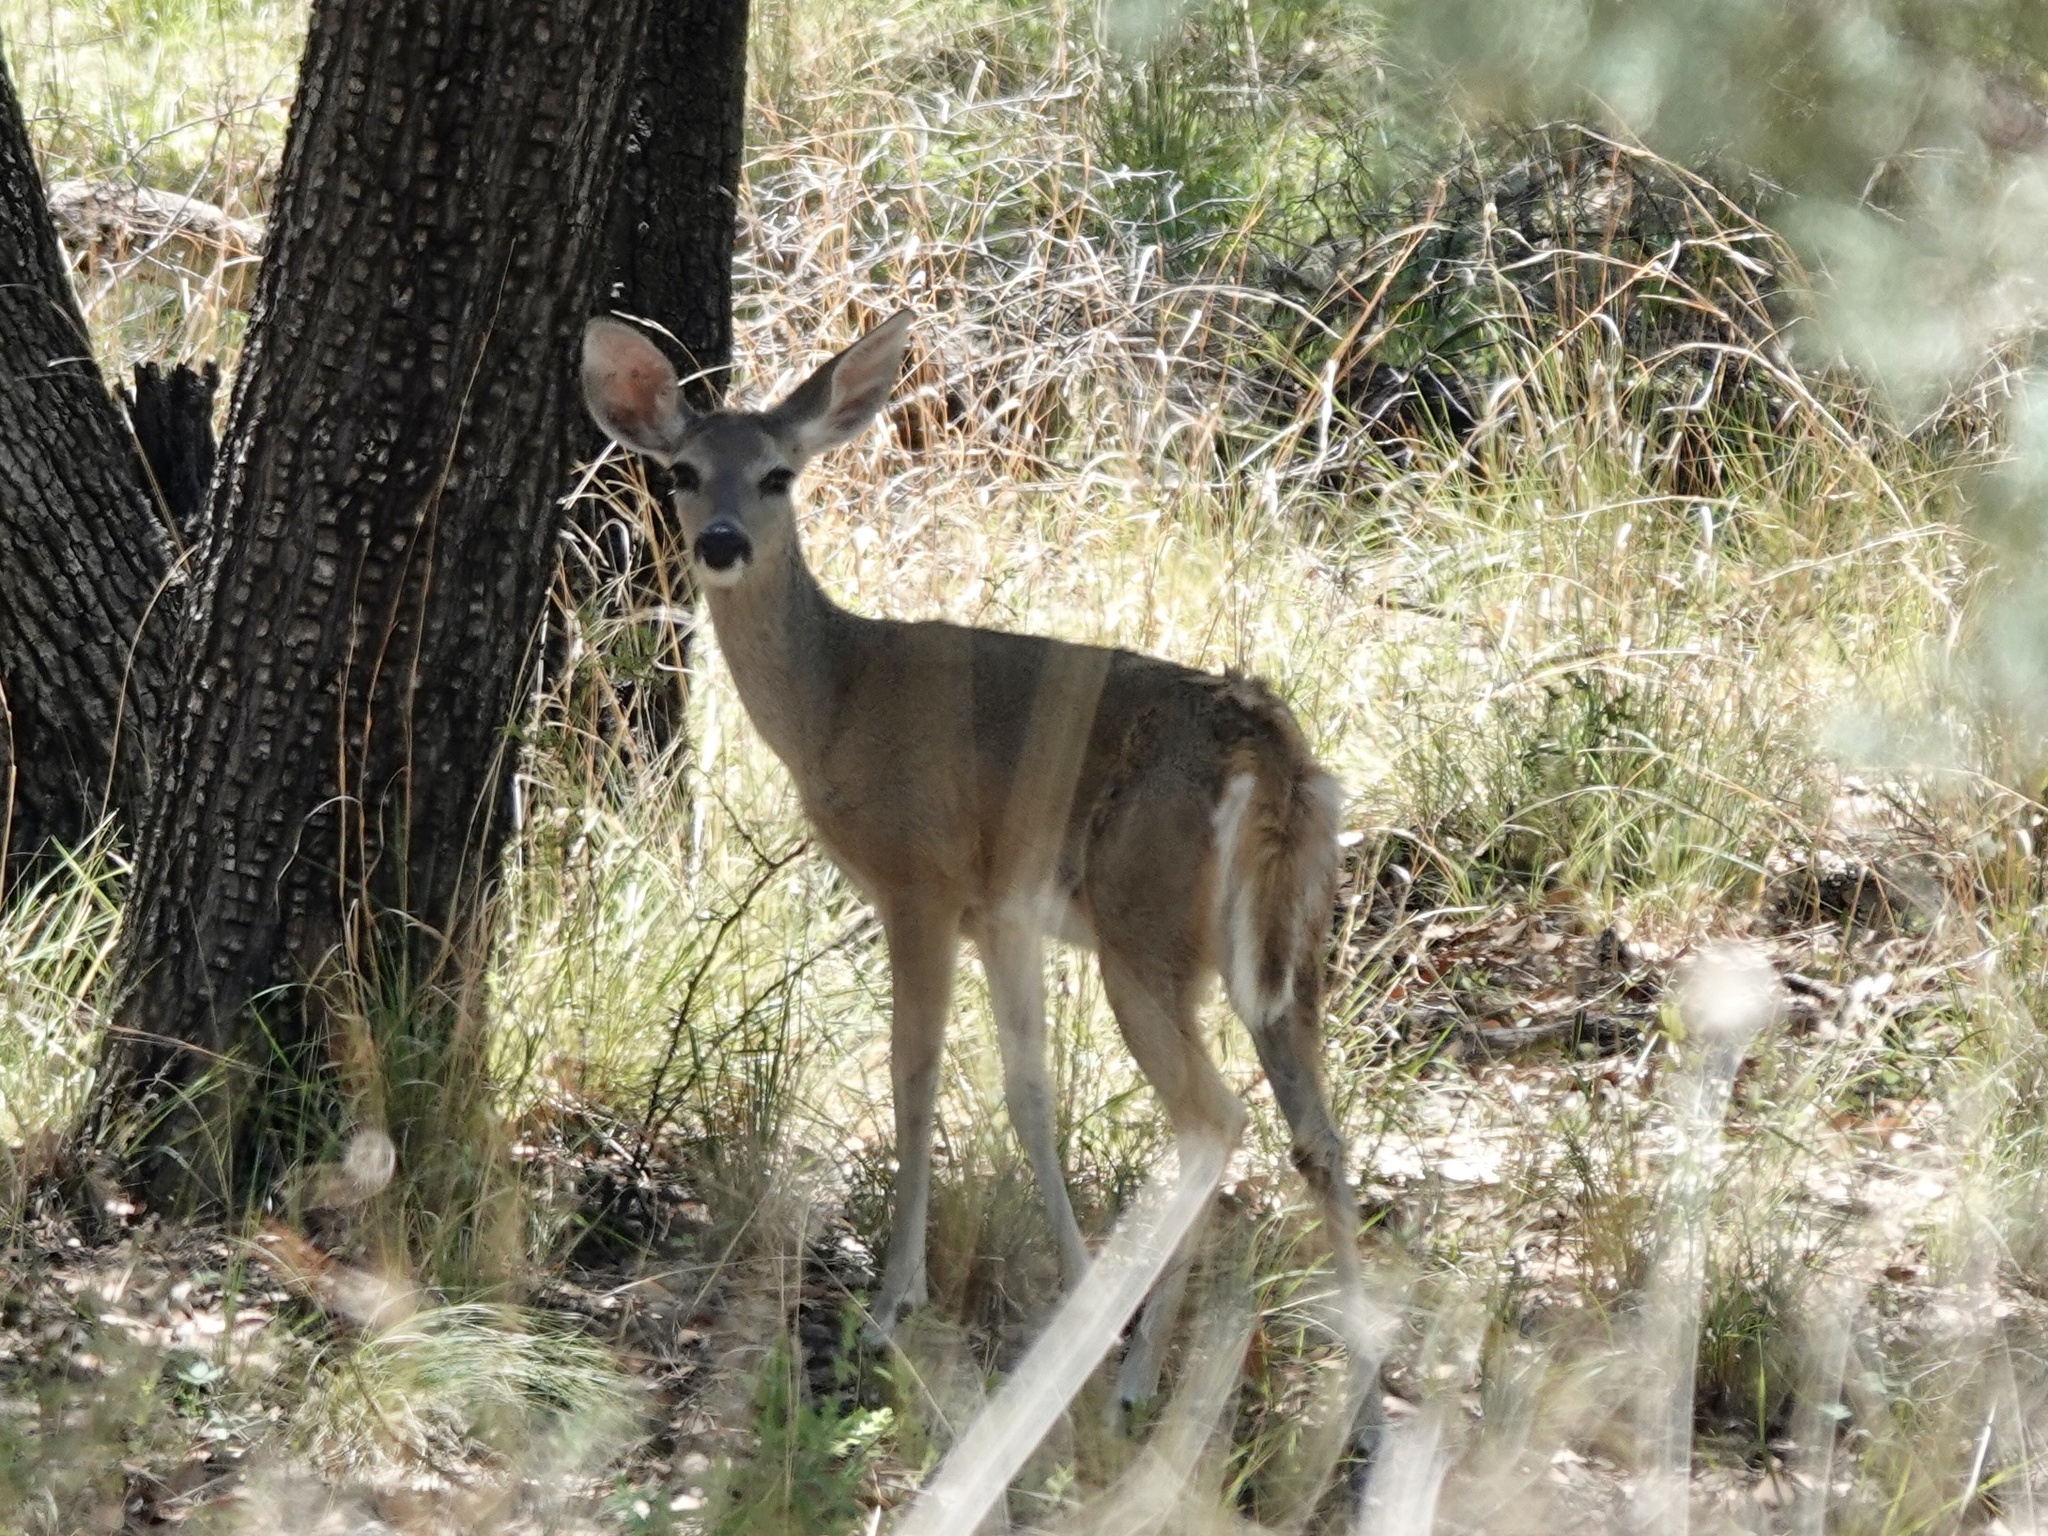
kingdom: Animalia
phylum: Chordata
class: Mammalia
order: Artiodactyla
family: Cervidae
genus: Odocoileus
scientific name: Odocoileus virginianus
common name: White-tailed deer
